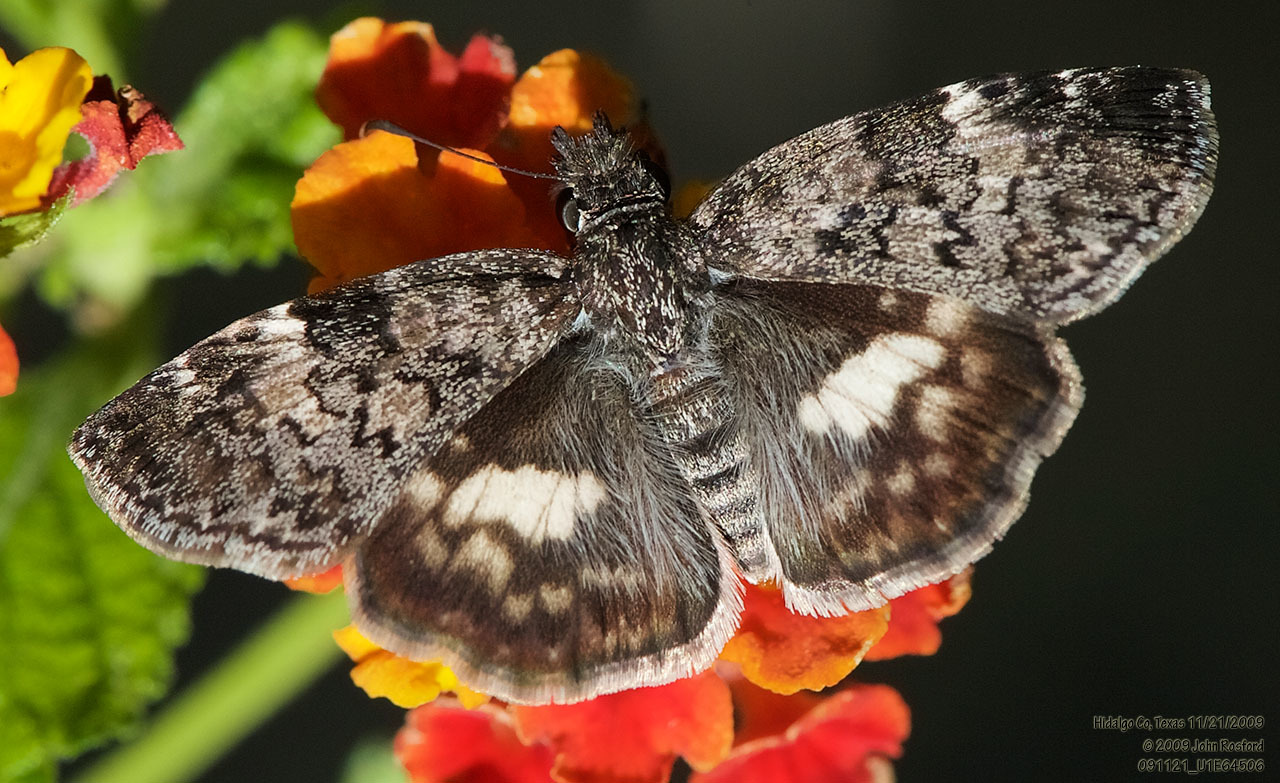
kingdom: Animalia
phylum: Arthropoda
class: Insecta
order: Lepidoptera
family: Hesperiidae
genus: Chiothion
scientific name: Chiothion georgina
